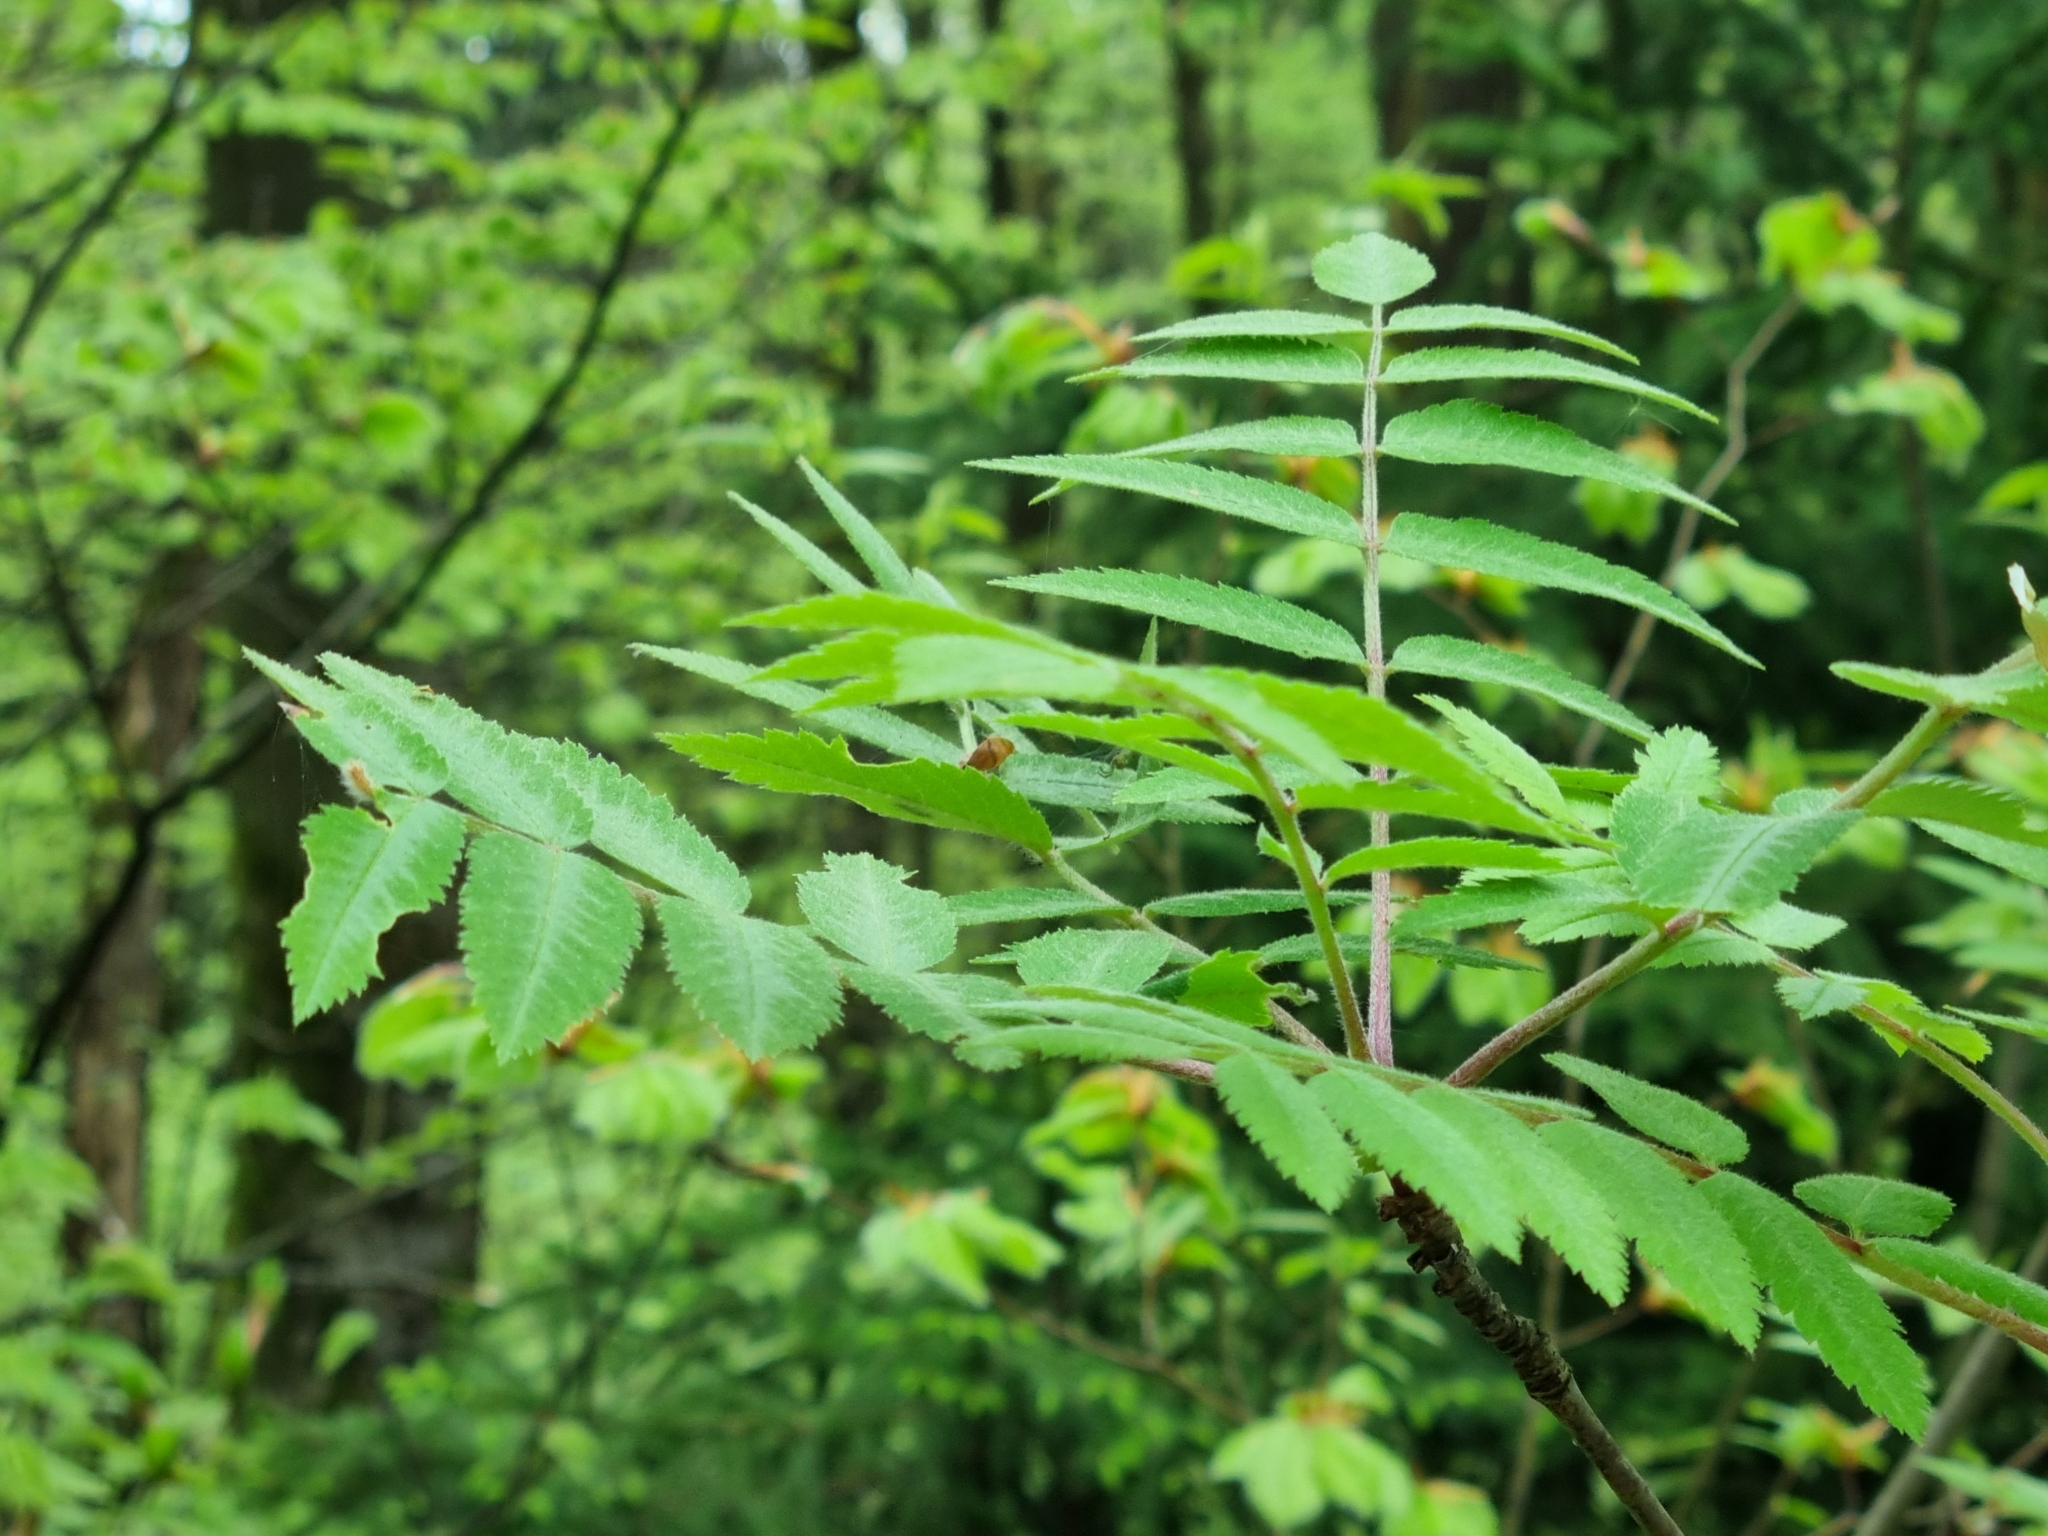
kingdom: Plantae
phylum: Tracheophyta
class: Magnoliopsida
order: Rosales
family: Rosaceae
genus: Sorbus
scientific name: Sorbus aucuparia
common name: Rowan
